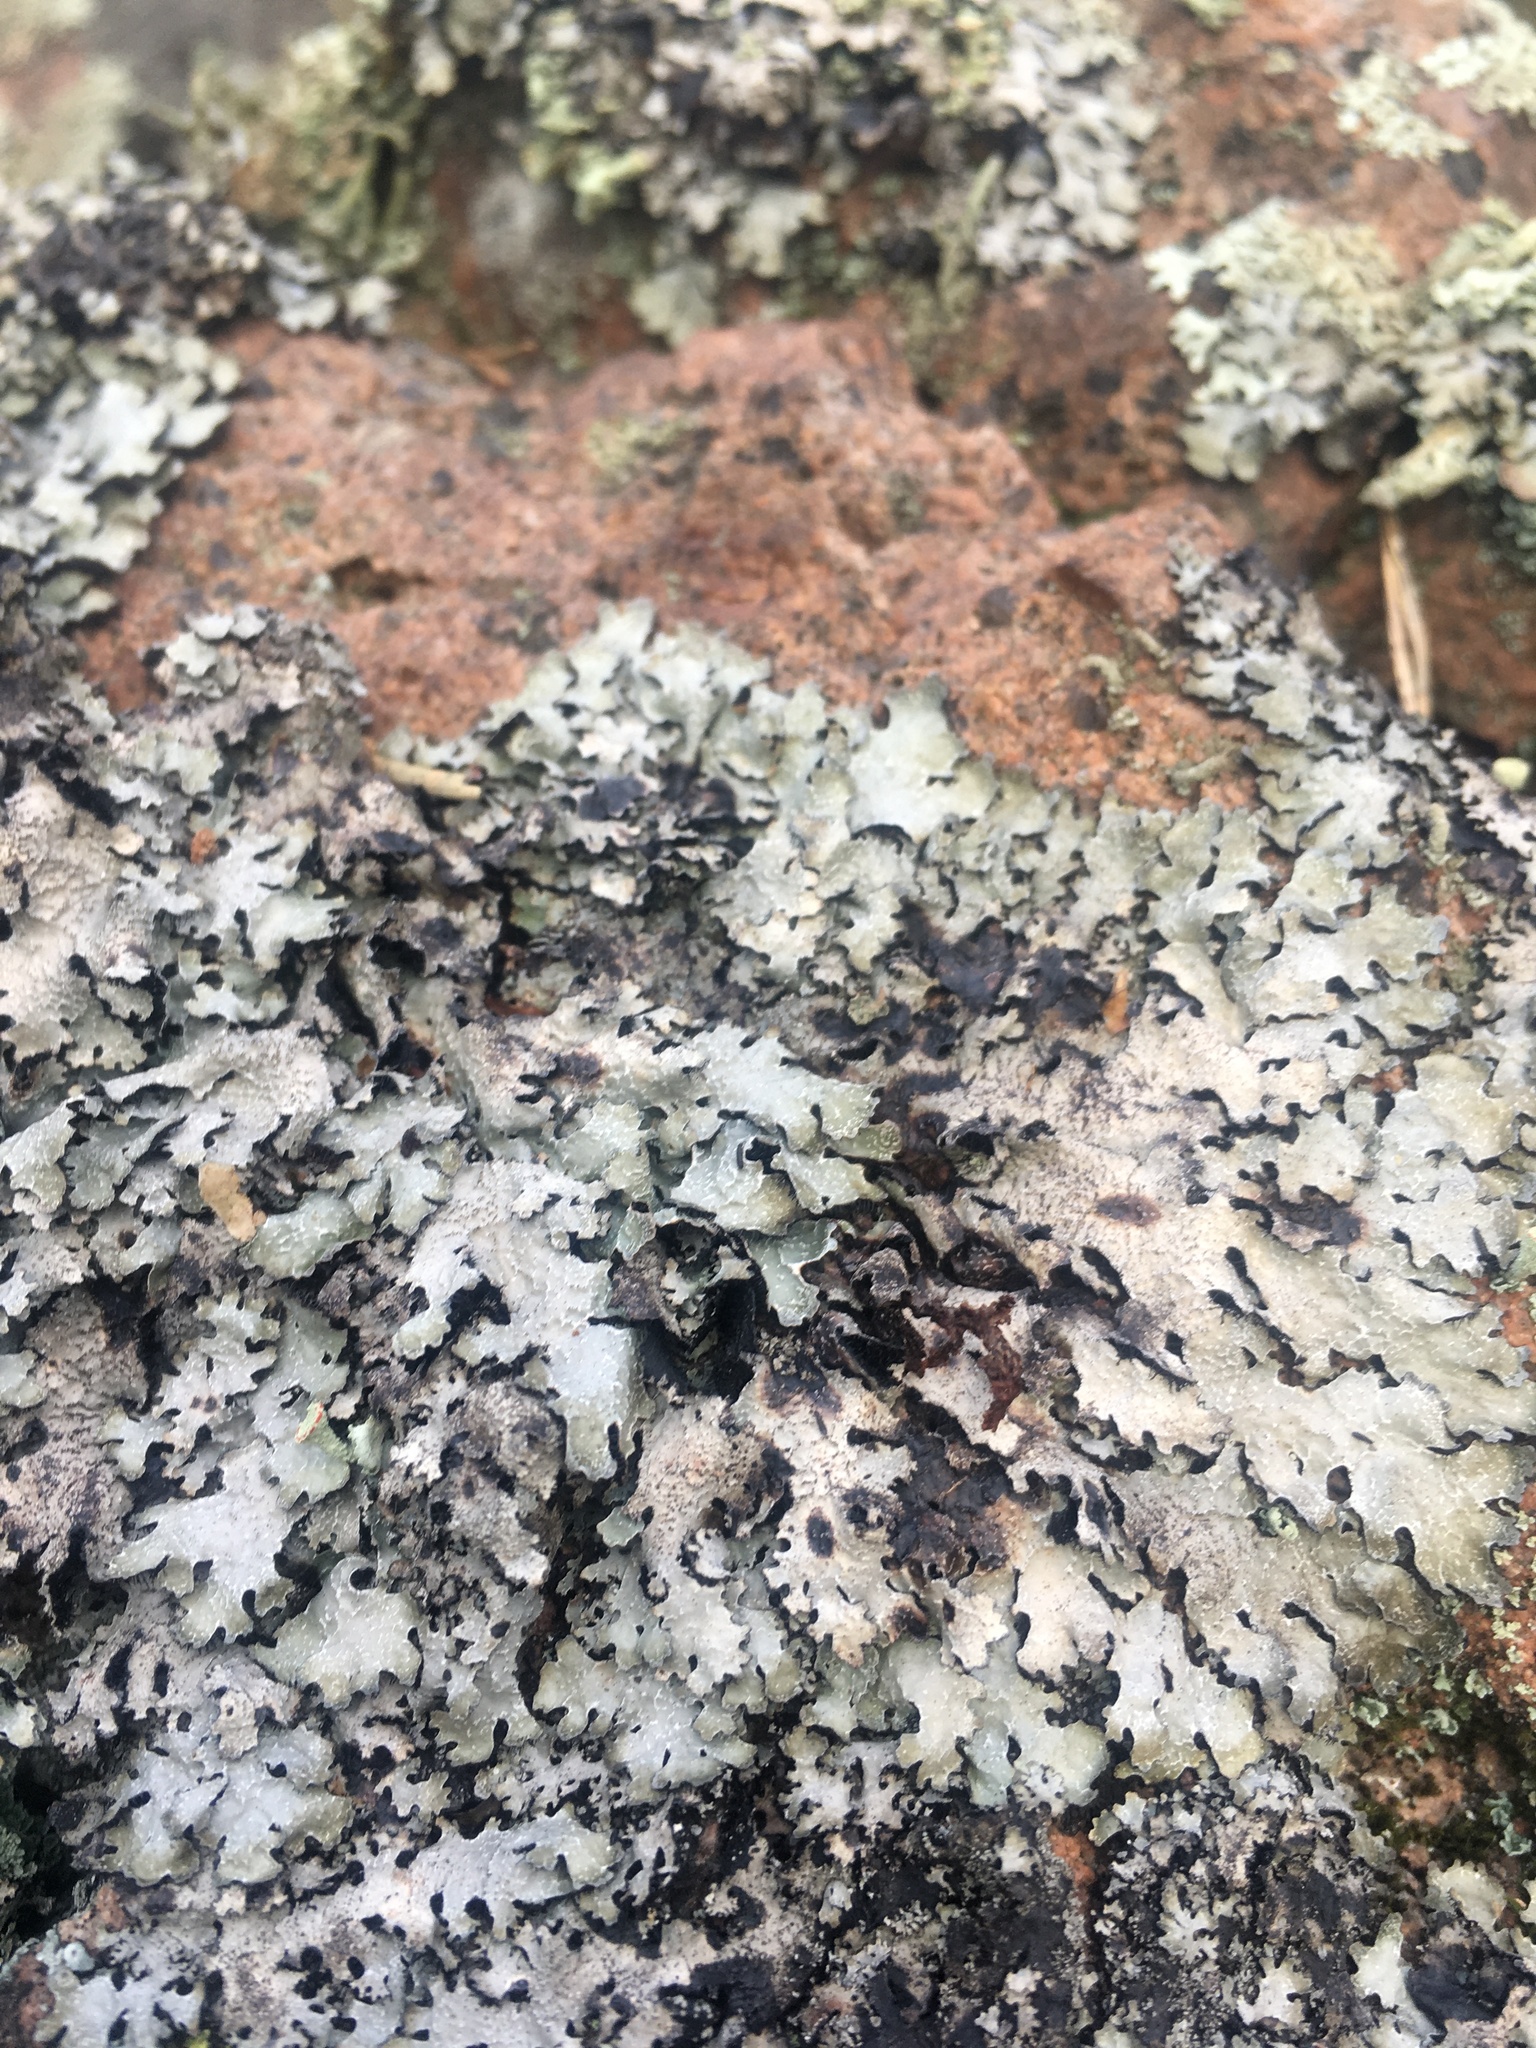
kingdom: Fungi
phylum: Ascomycota
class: Lecanoromycetes
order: Lecanorales
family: Parmeliaceae
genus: Parmelia
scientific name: Parmelia sulcata
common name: Netted shield lichen
